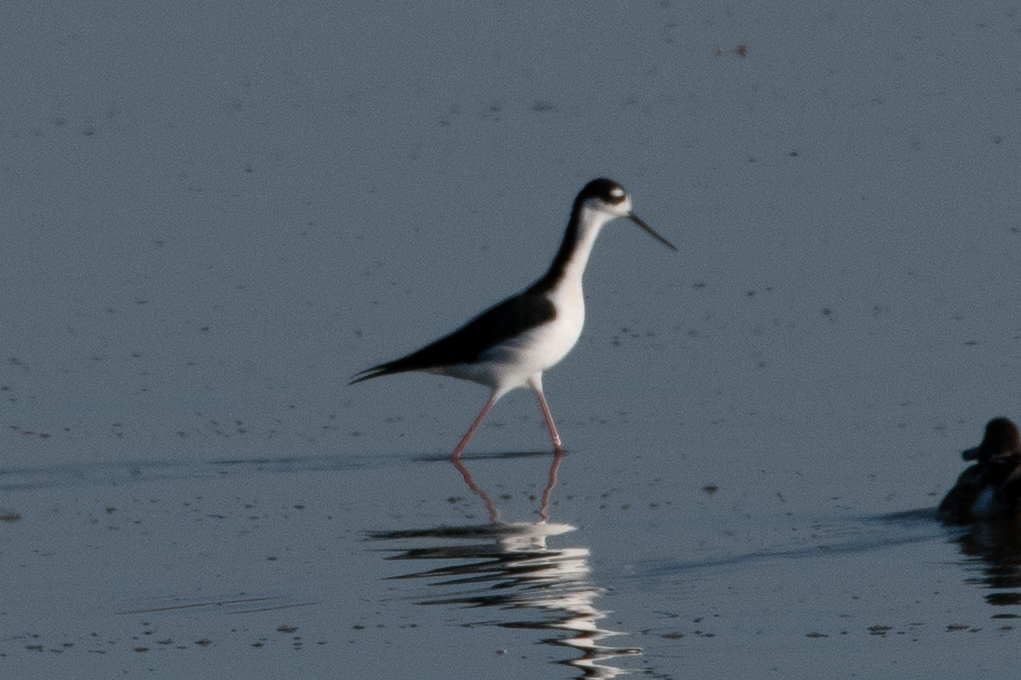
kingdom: Animalia
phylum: Chordata
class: Aves
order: Charadriiformes
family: Recurvirostridae
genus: Himantopus
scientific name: Himantopus mexicanus
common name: Black-necked stilt
